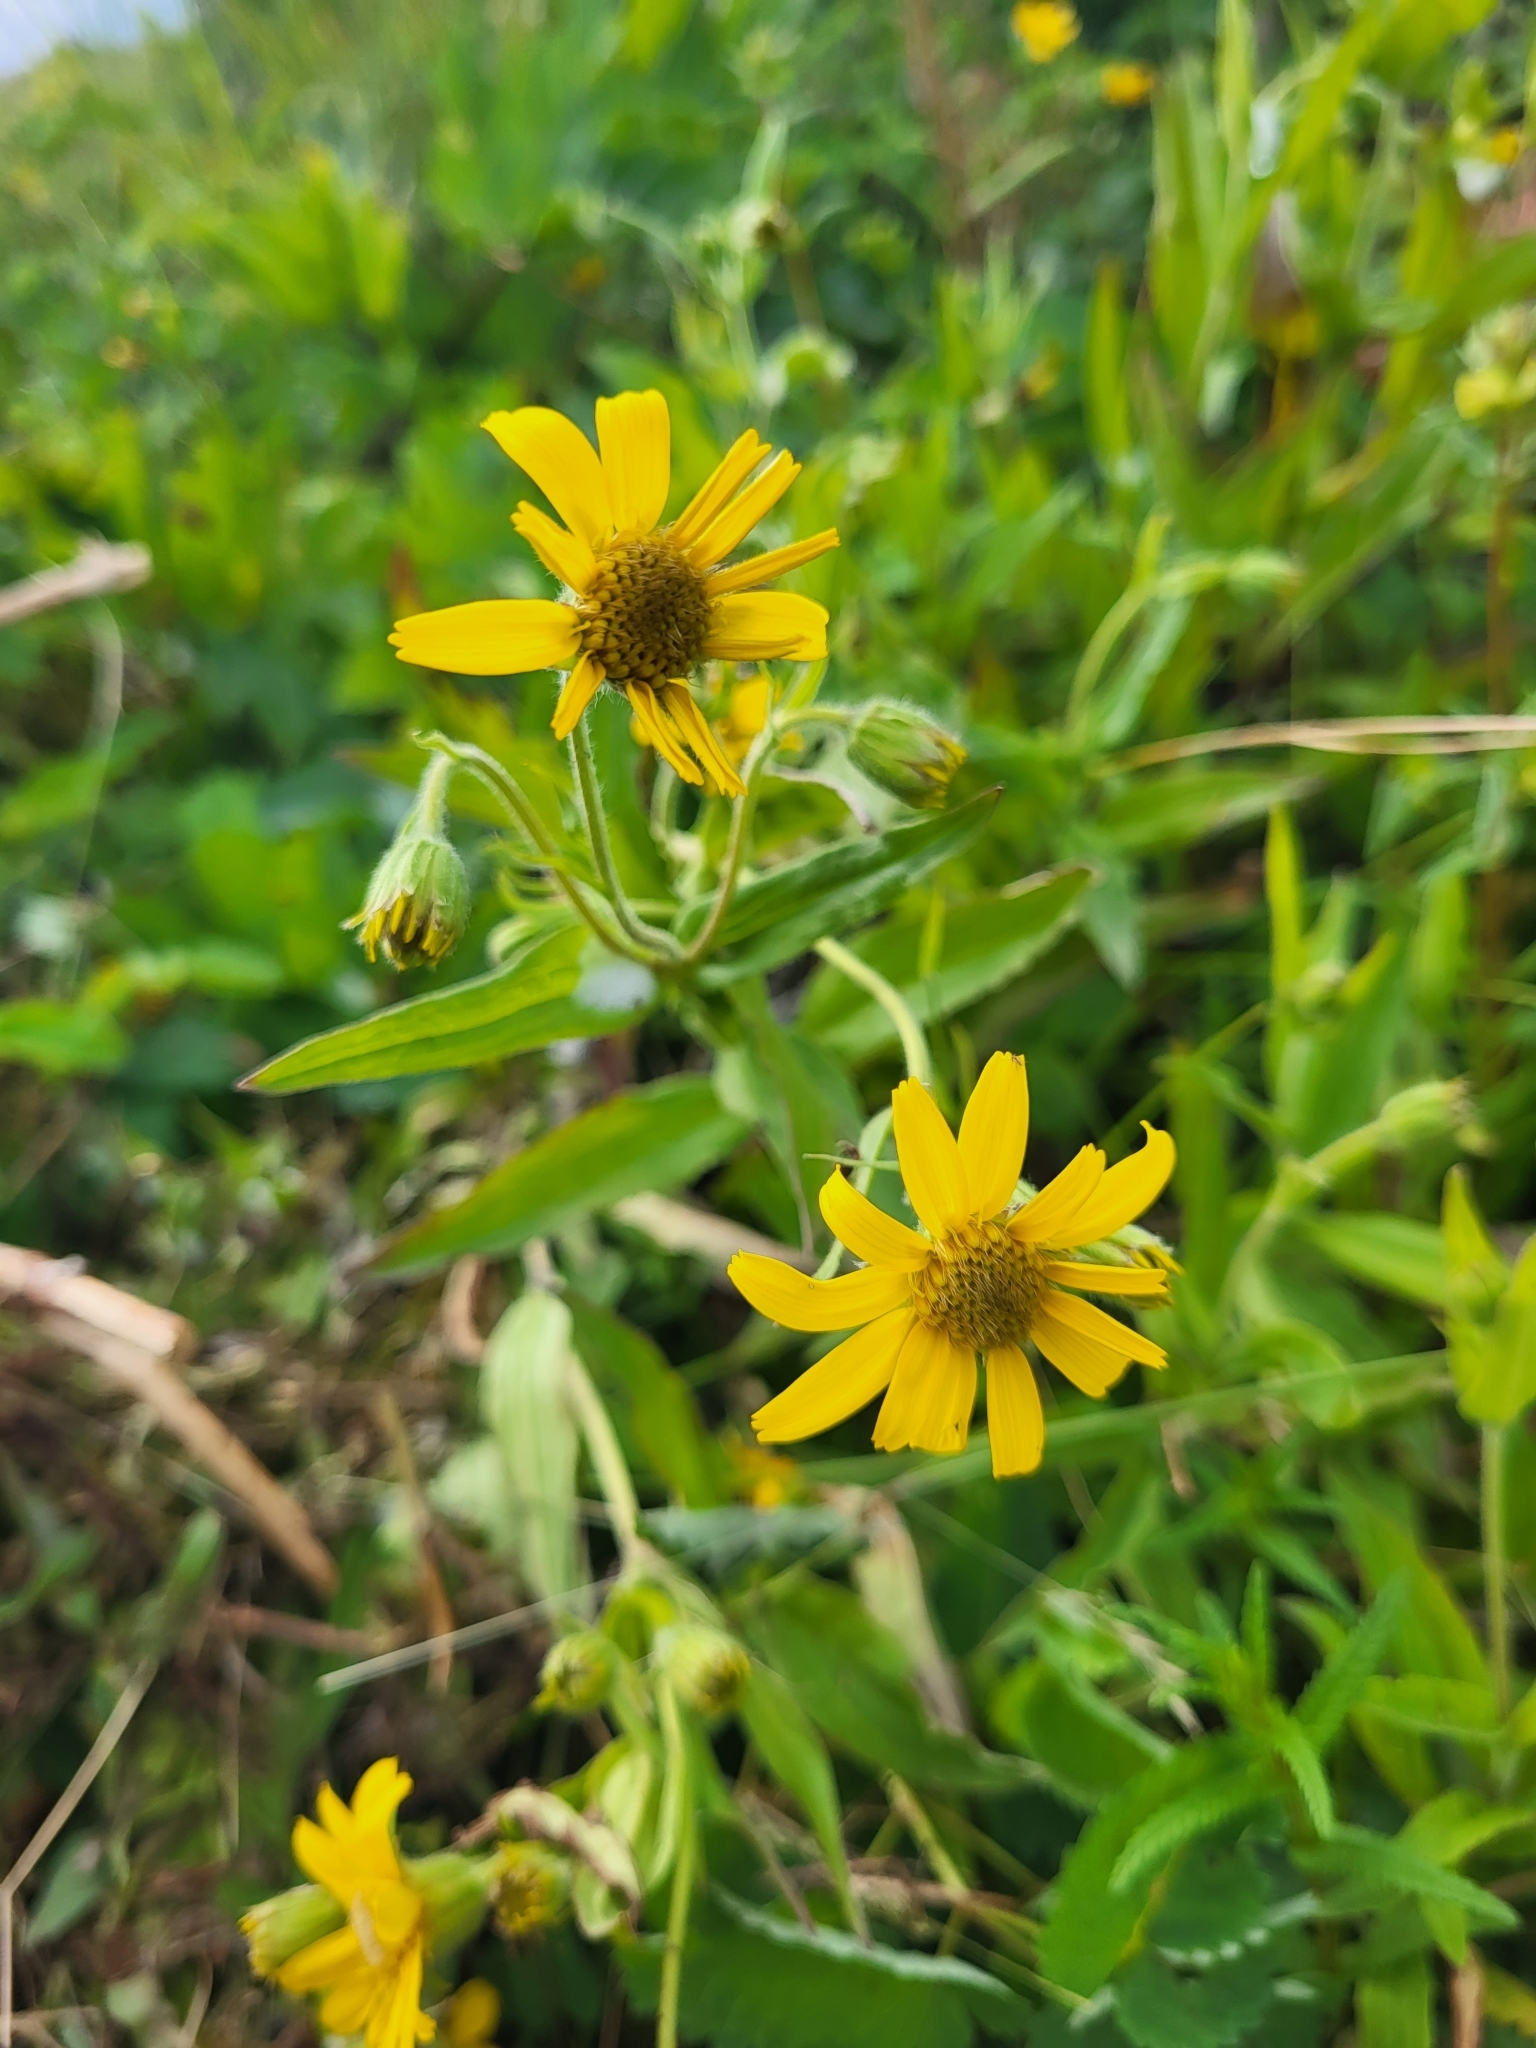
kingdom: Plantae
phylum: Tracheophyta
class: Magnoliopsida
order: Asterales
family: Asteraceae
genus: Arnica
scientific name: Arnica chamissonis
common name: Leafy arnica
